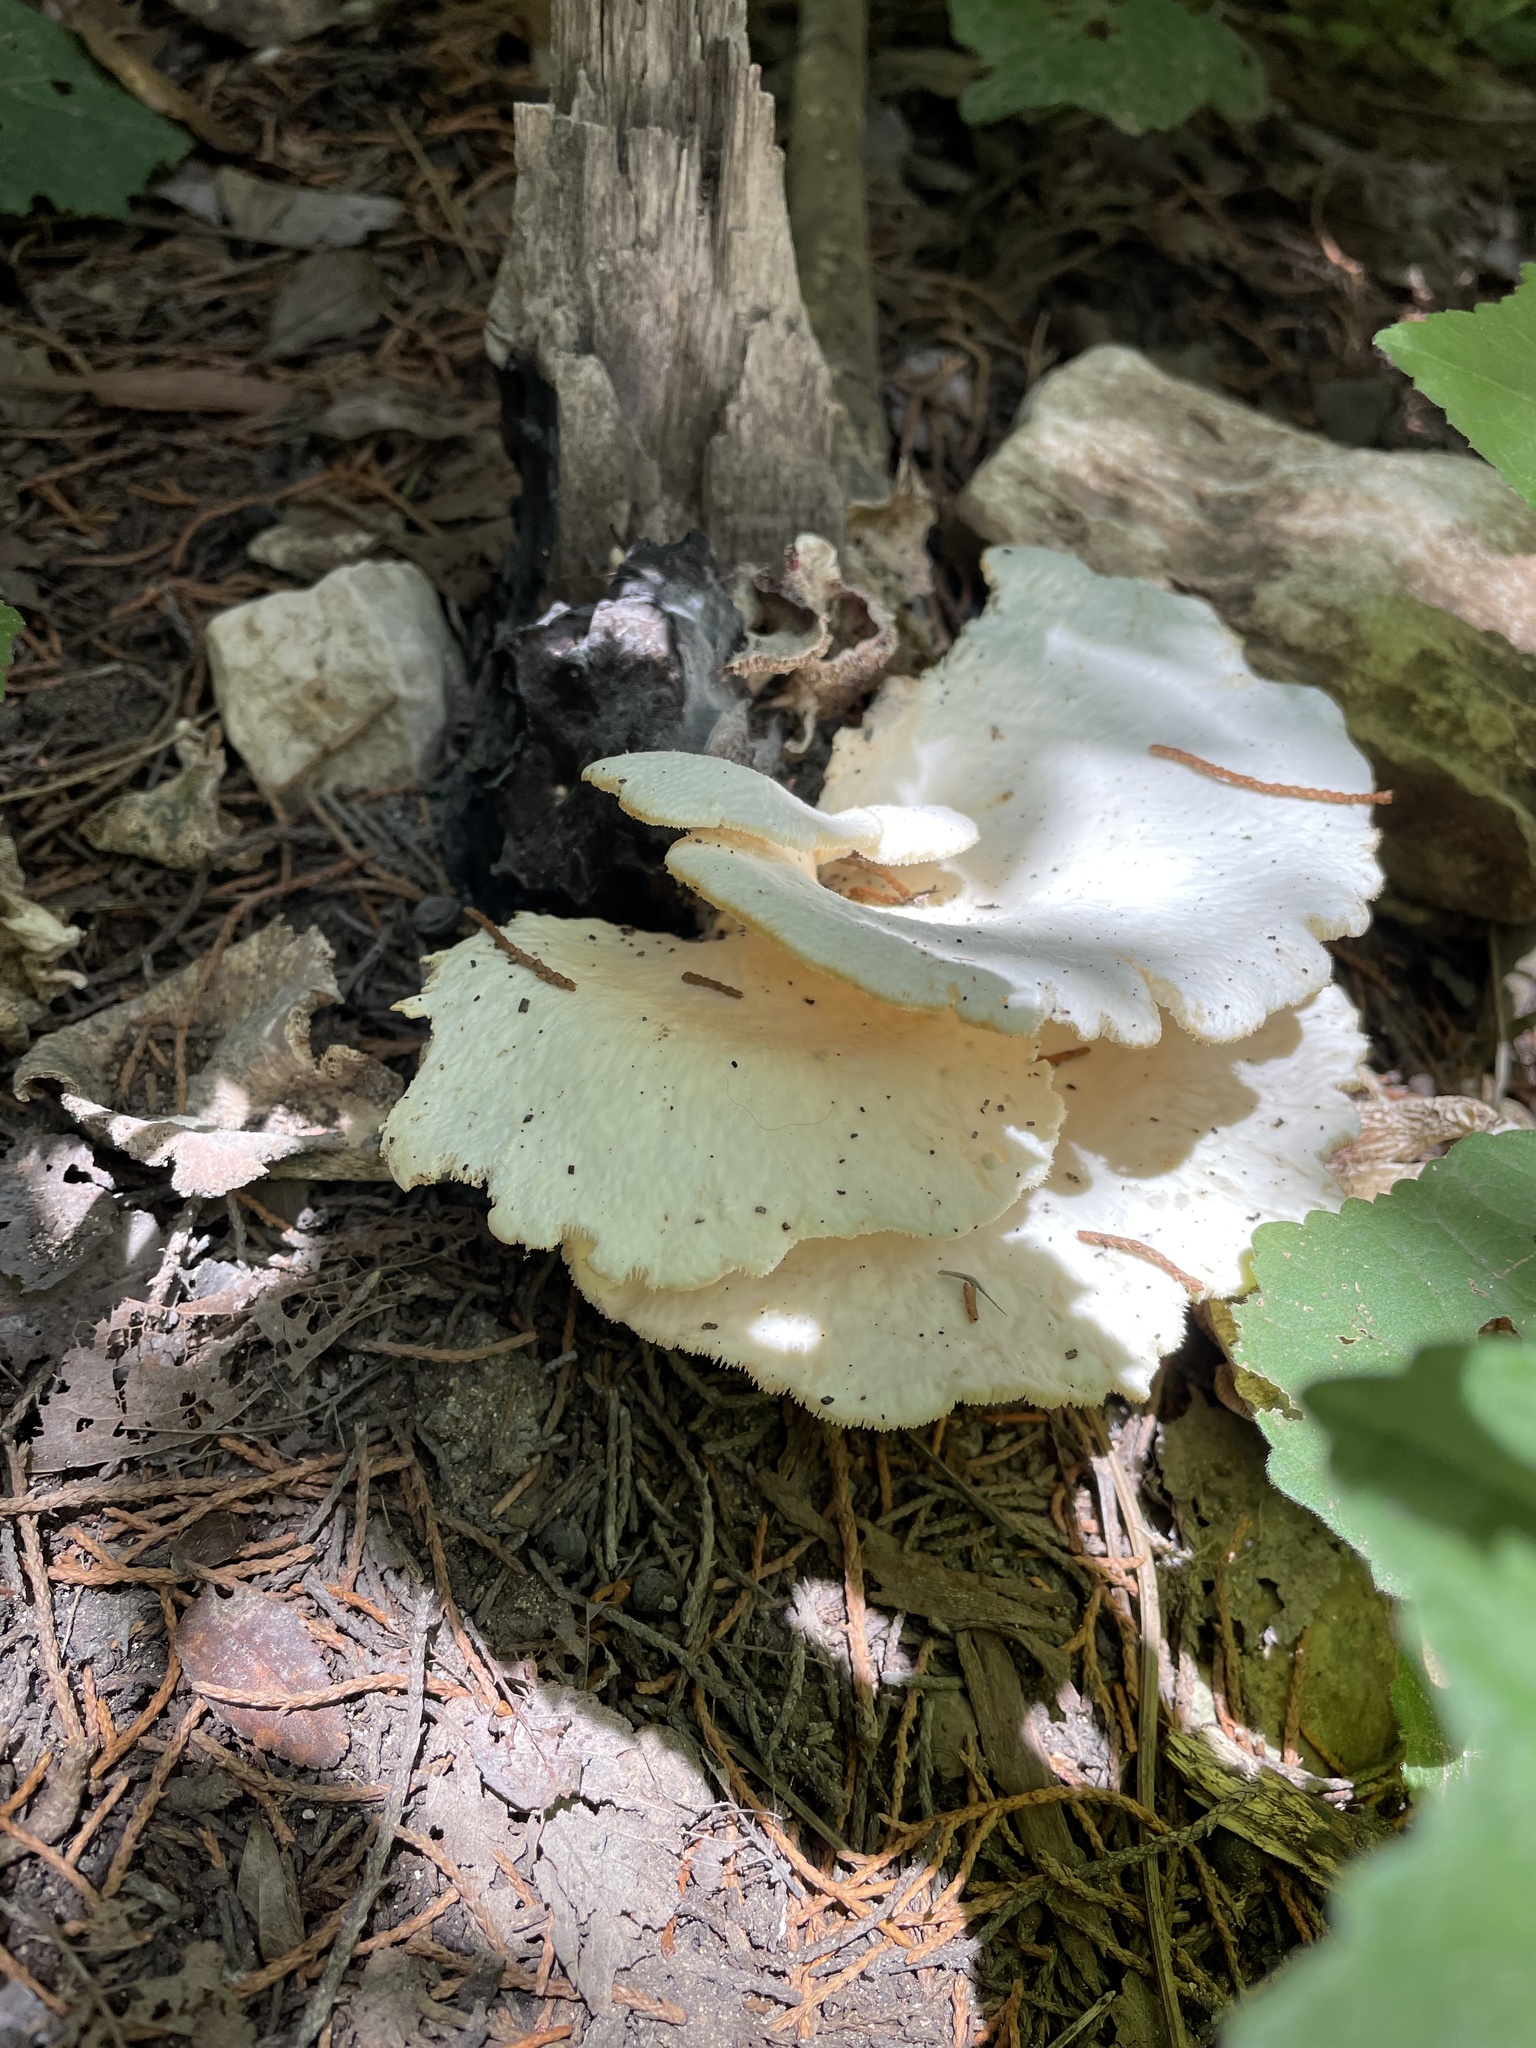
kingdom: Fungi
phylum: Basidiomycota
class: Agaricomycetes
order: Polyporales
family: Polyporaceae
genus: Favolus
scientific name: Favolus tenuiculus
